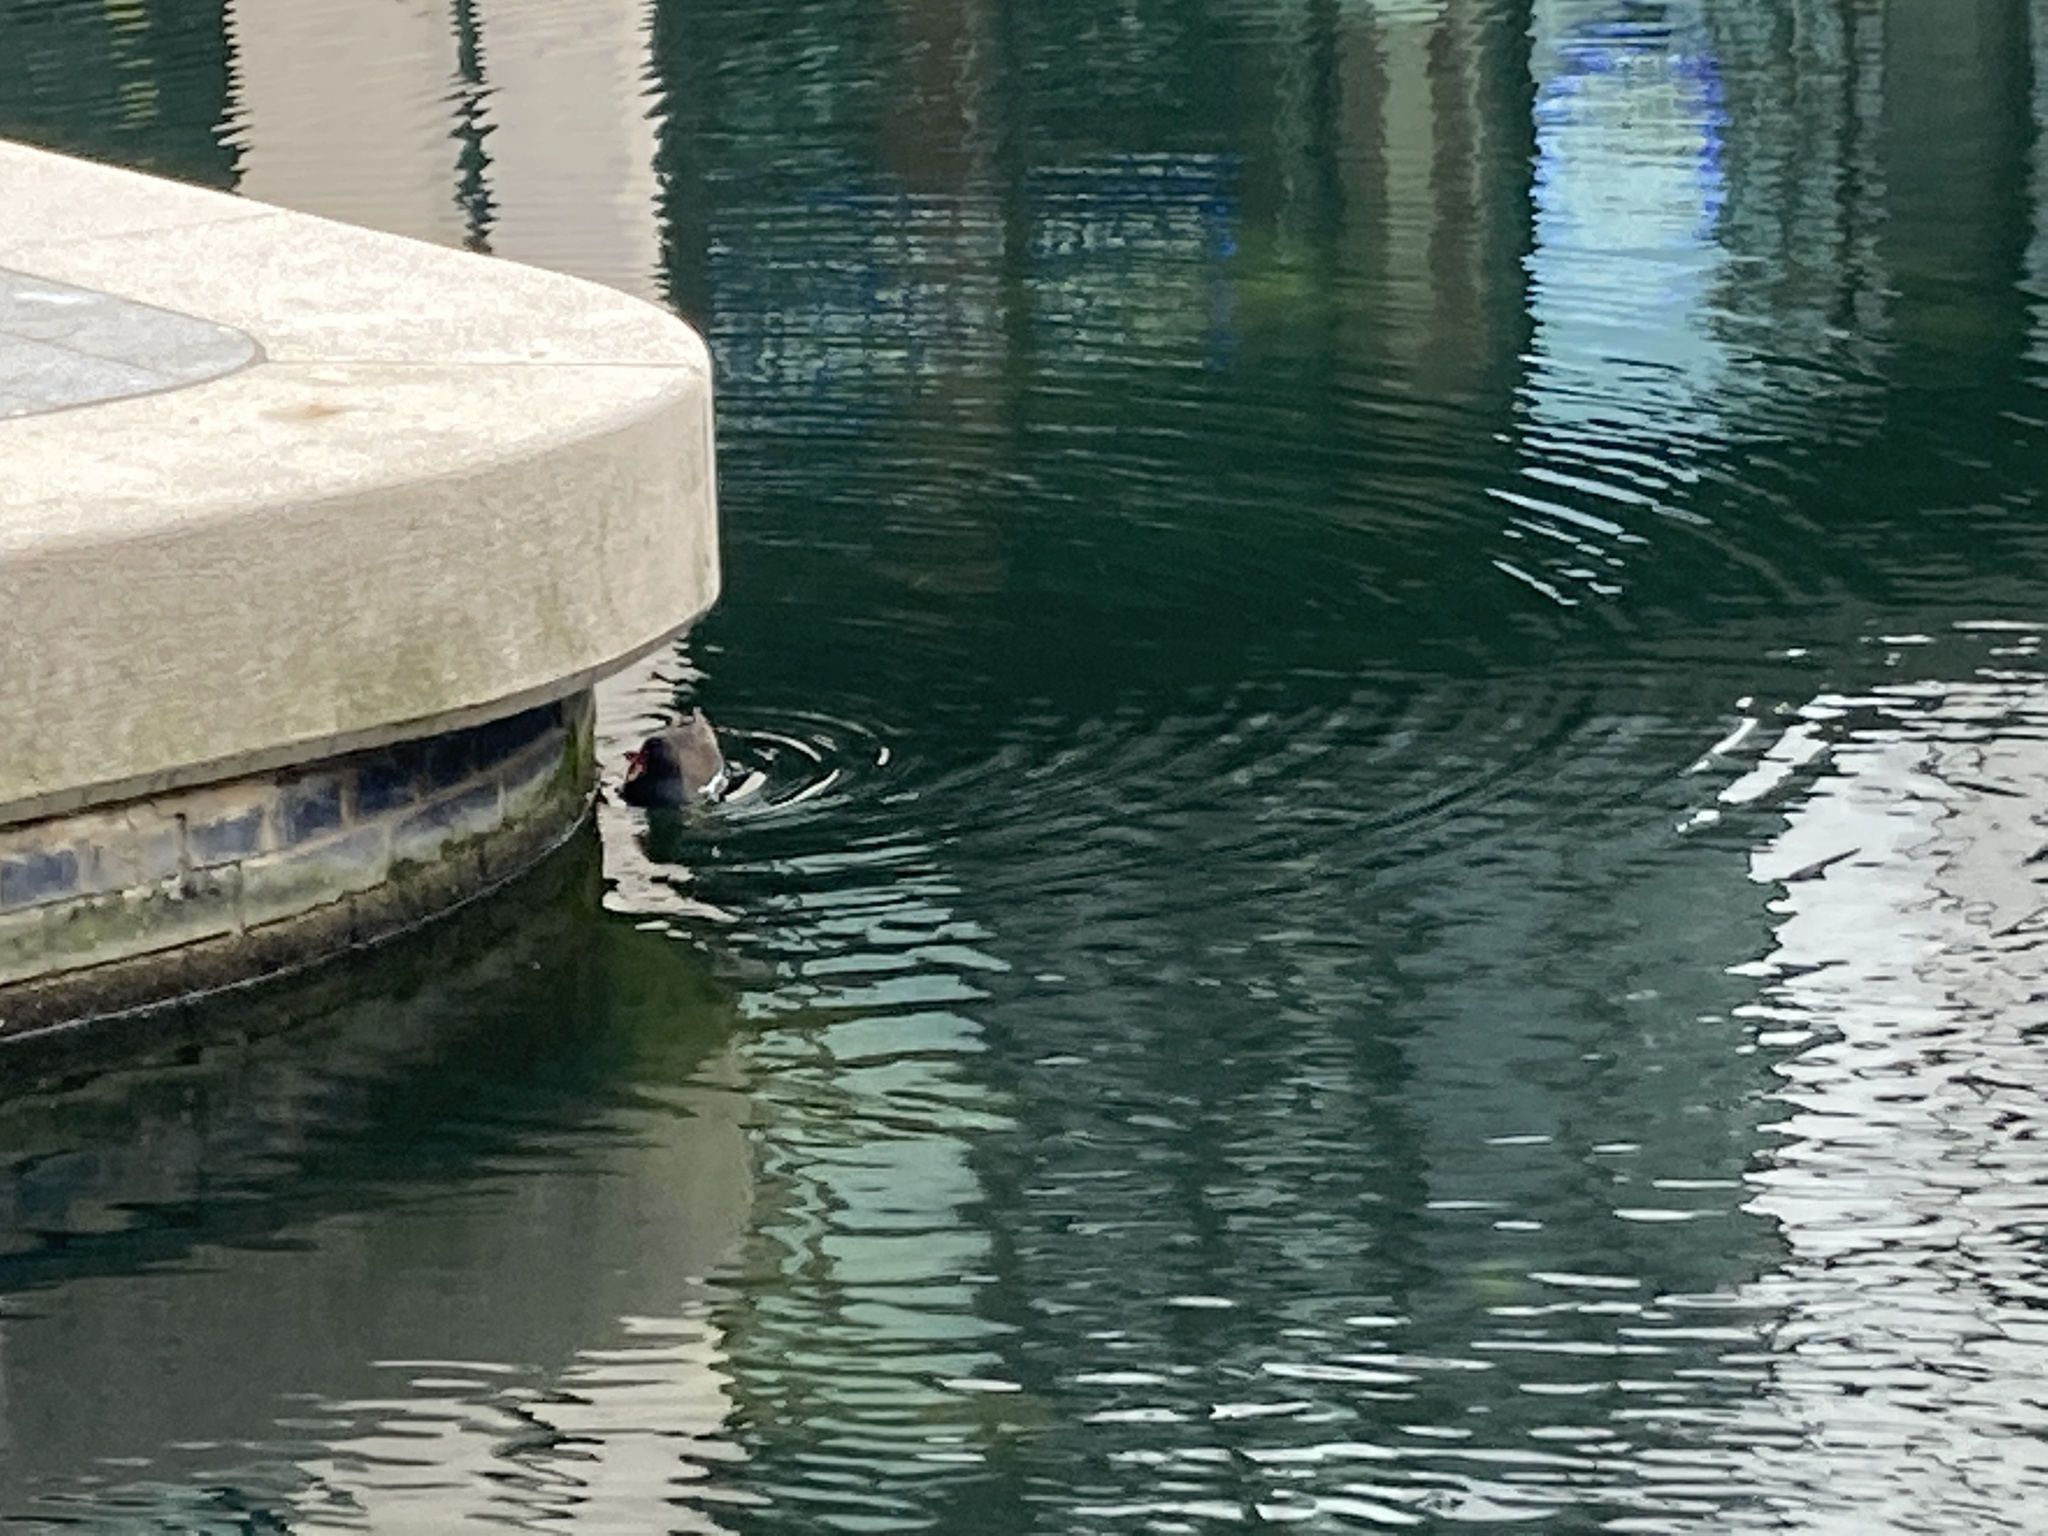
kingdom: Animalia
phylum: Chordata
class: Aves
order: Gruiformes
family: Rallidae
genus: Gallinula
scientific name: Gallinula chloropus
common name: Common moorhen
